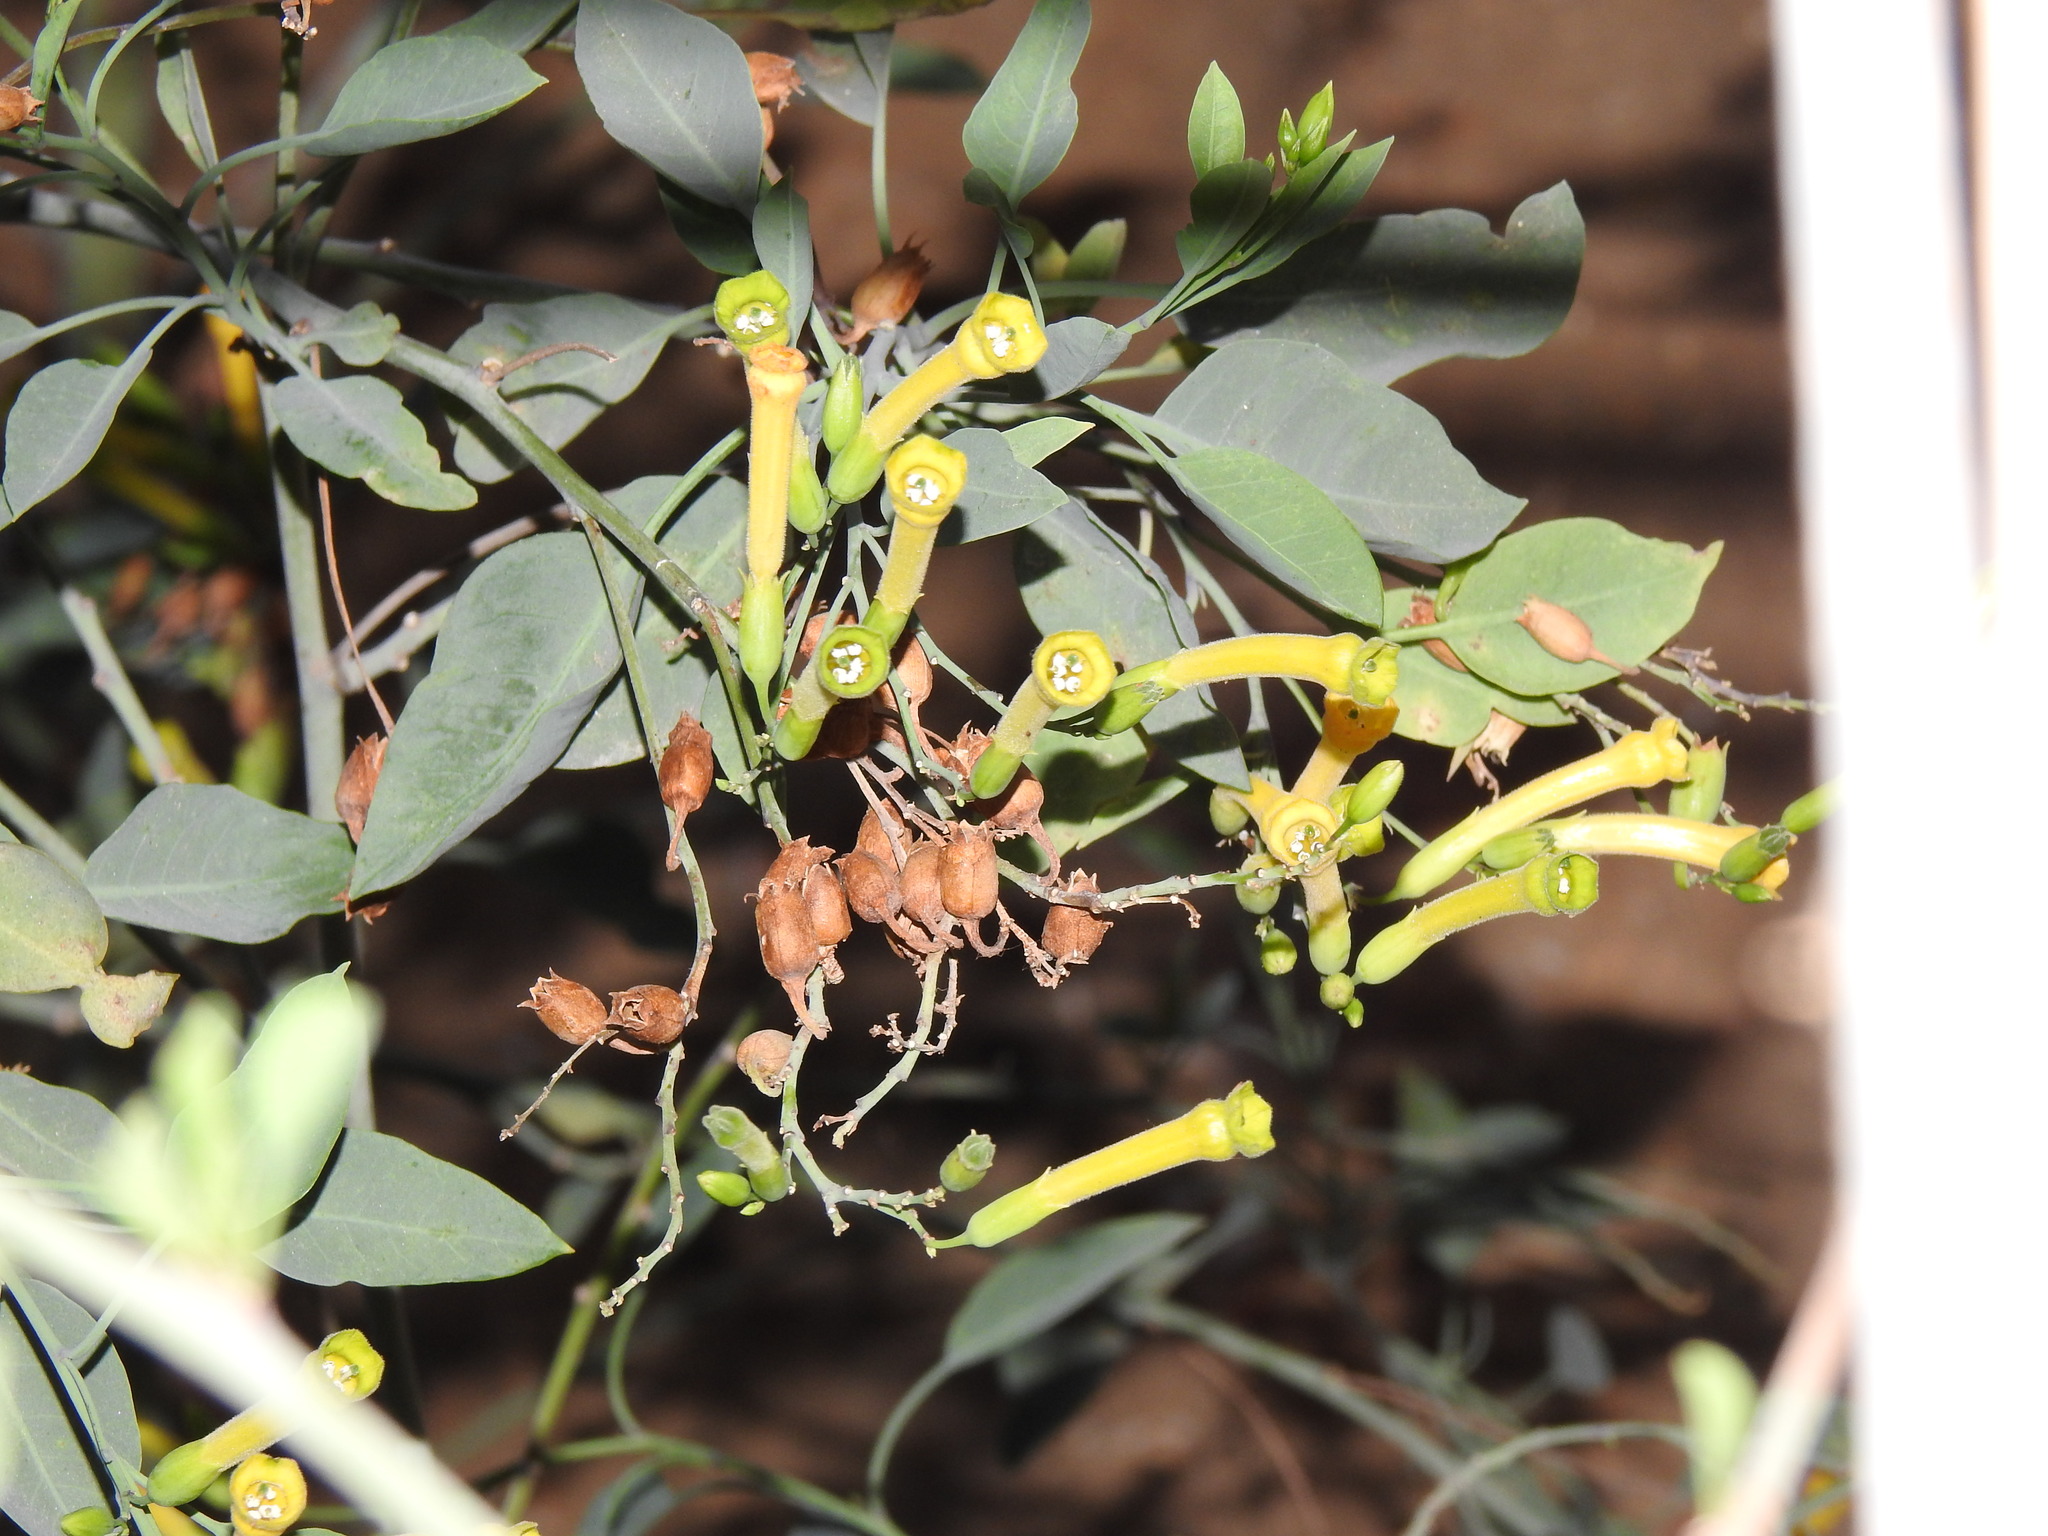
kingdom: Plantae
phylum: Tracheophyta
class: Magnoliopsida
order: Solanales
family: Solanaceae
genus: Nicotiana
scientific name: Nicotiana glauca
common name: Tree tobacco
